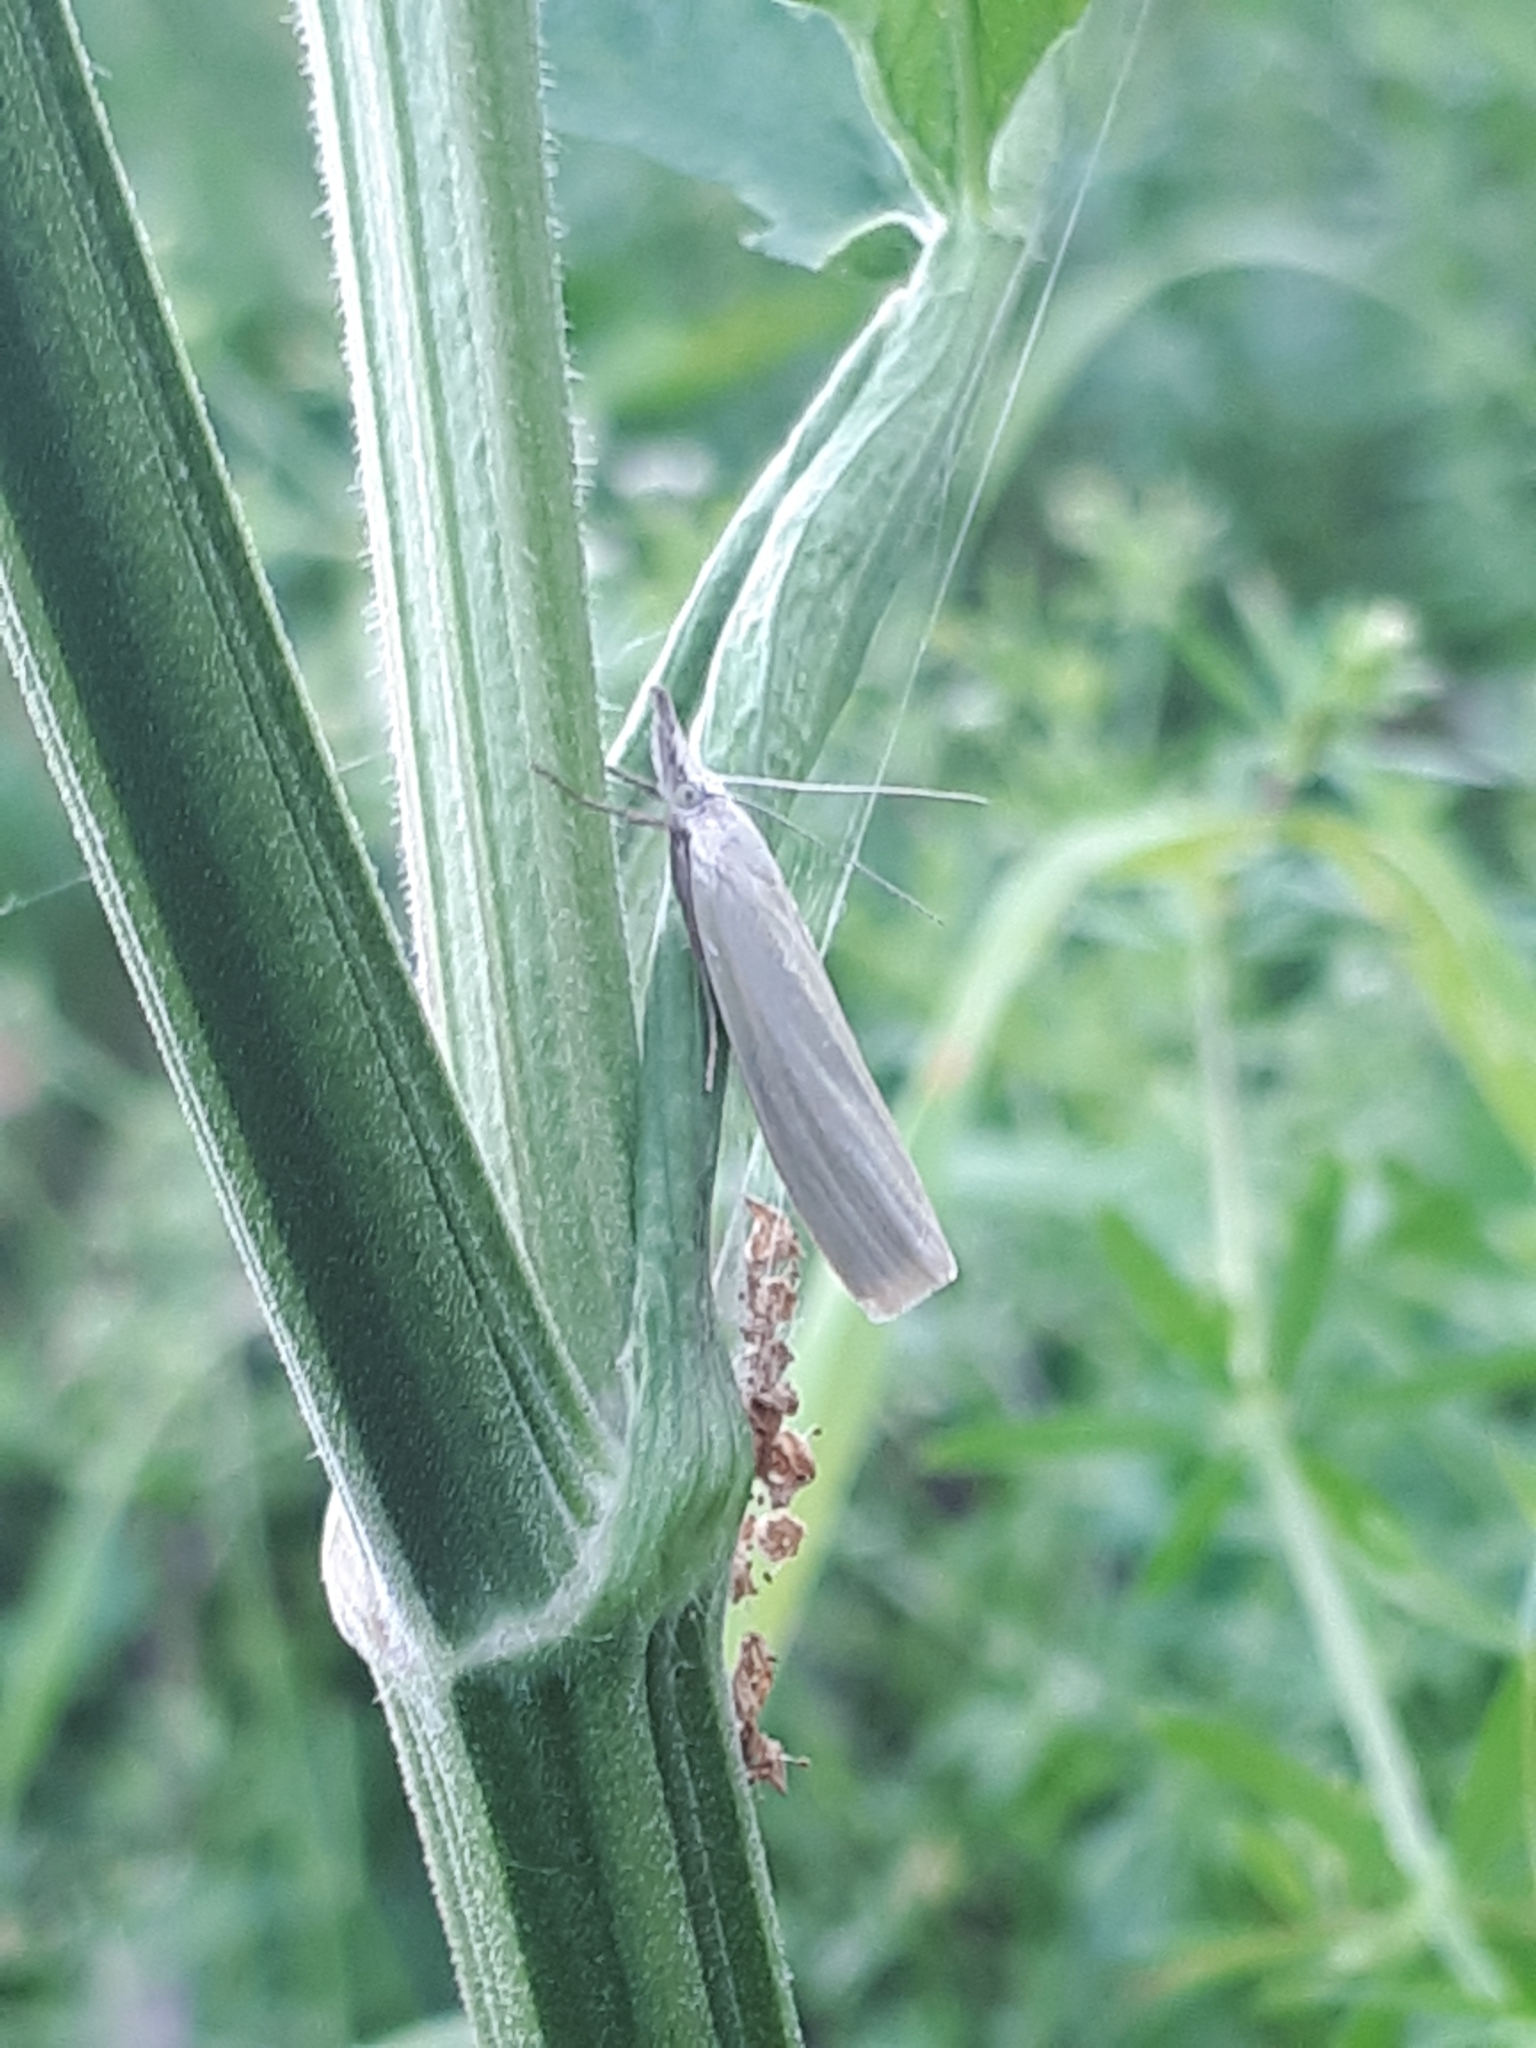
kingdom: Animalia
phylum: Arthropoda
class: Insecta
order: Lepidoptera
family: Crambidae
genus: Crambus
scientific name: Crambus perlellus
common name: Yellow satin veneer
